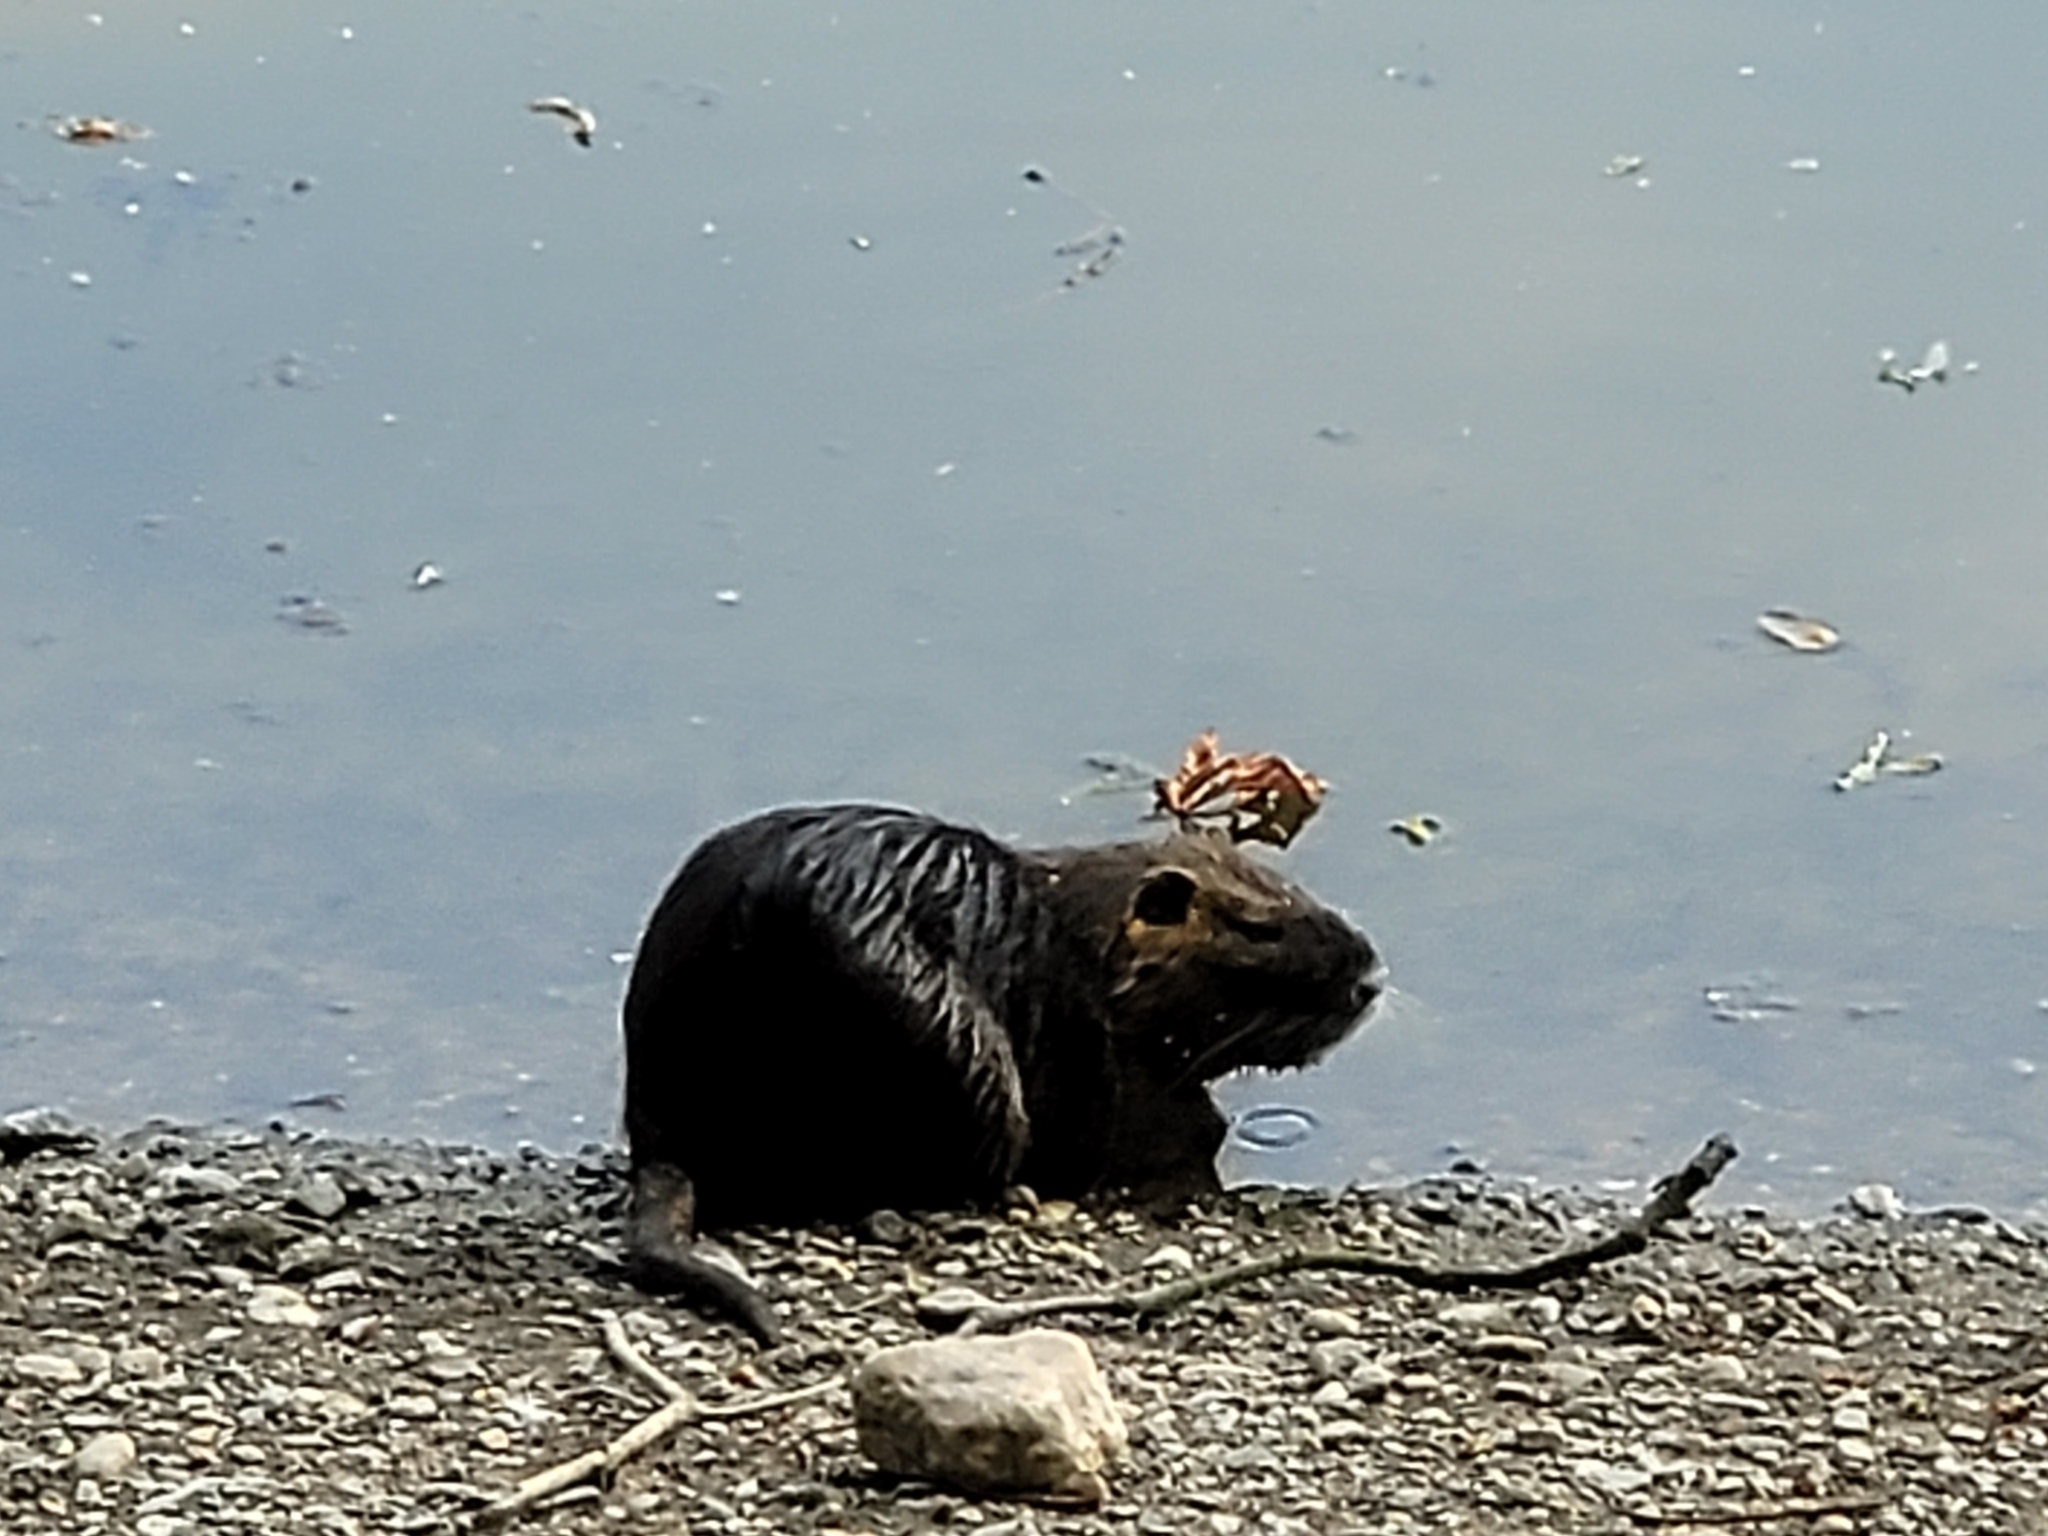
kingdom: Animalia
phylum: Chordata
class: Mammalia
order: Rodentia
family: Myocastoridae
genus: Myocastor
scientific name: Myocastor coypus
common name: Coypu
